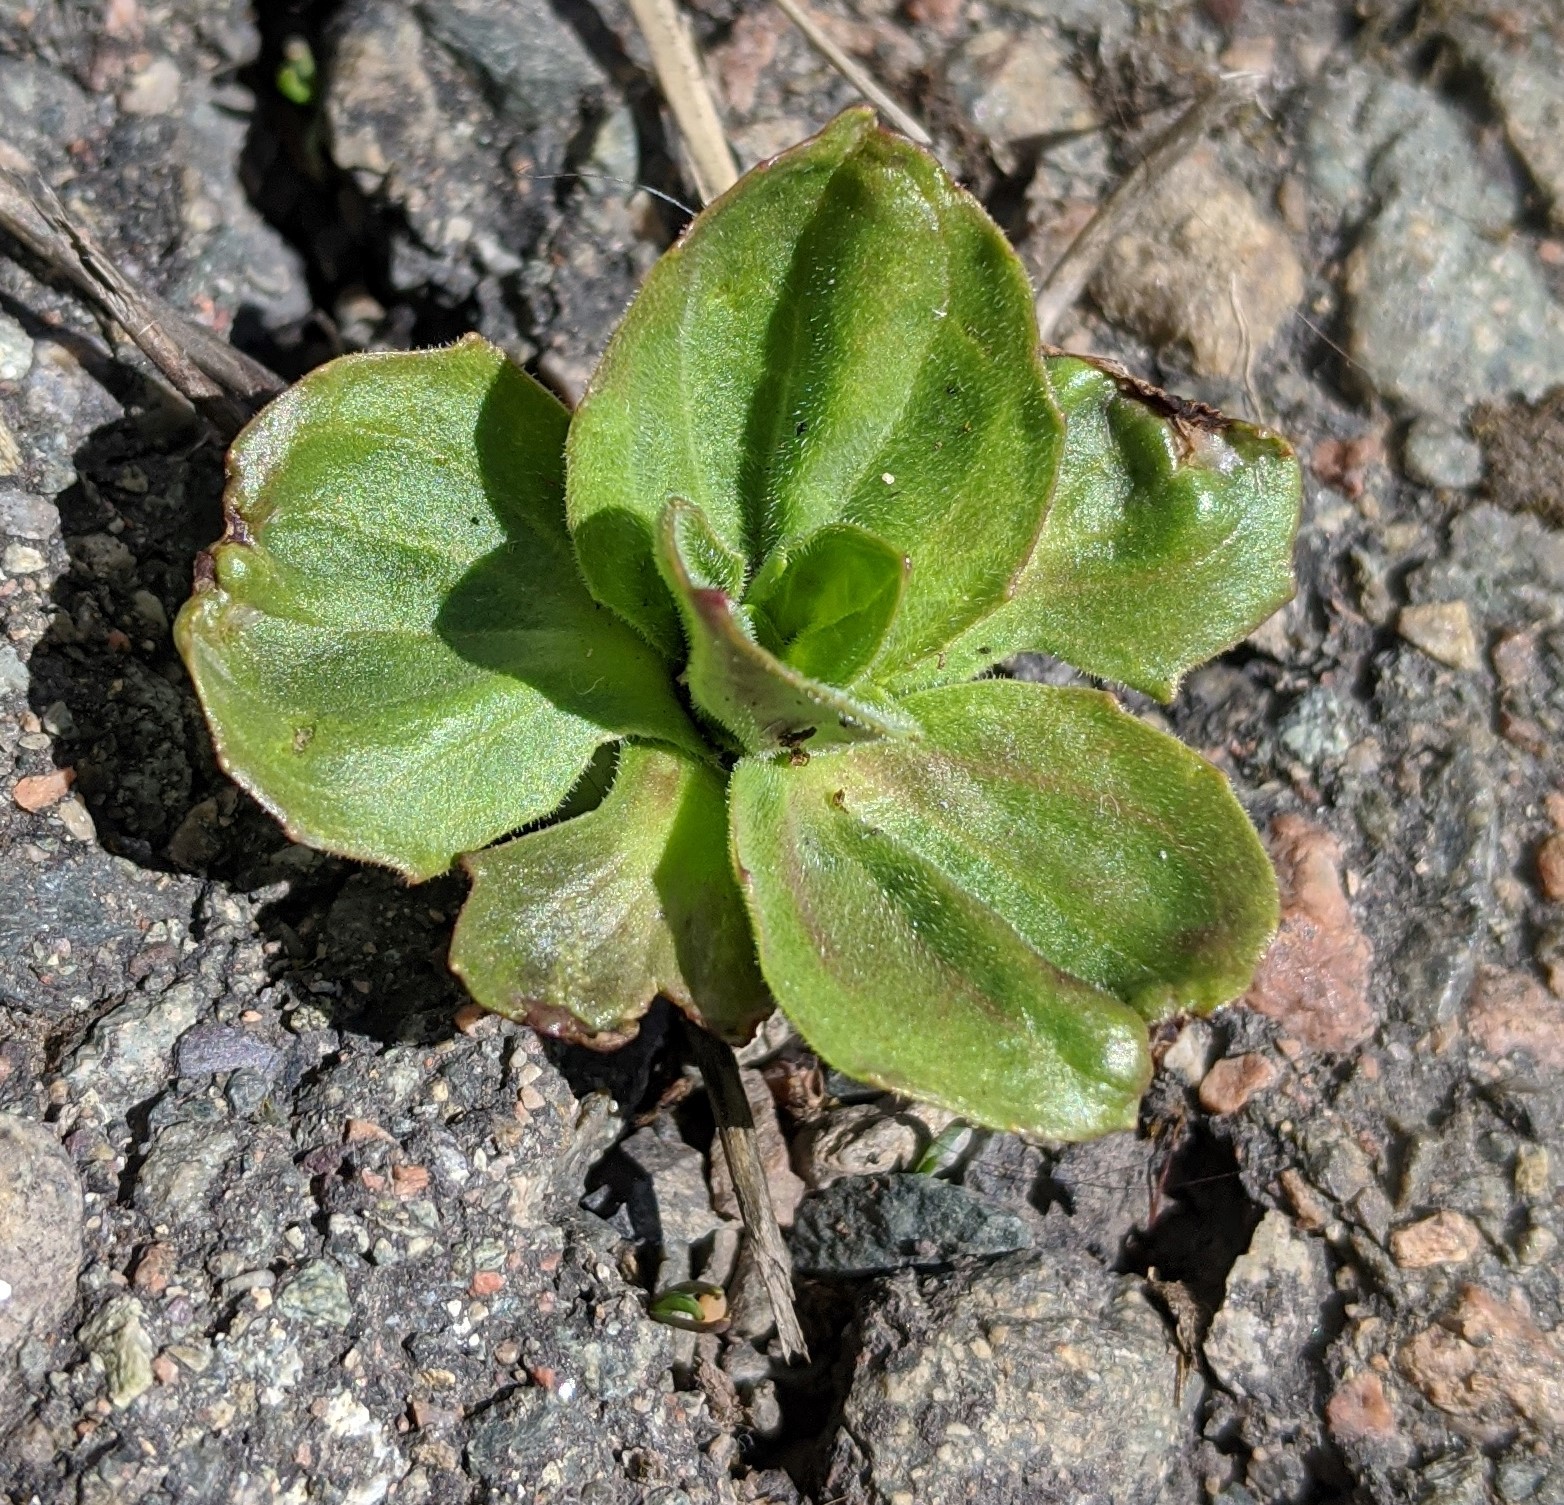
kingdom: Plantae
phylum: Tracheophyta
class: Magnoliopsida
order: Lamiales
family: Plantaginaceae
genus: Plantago
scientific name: Plantago major
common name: Common plantain
